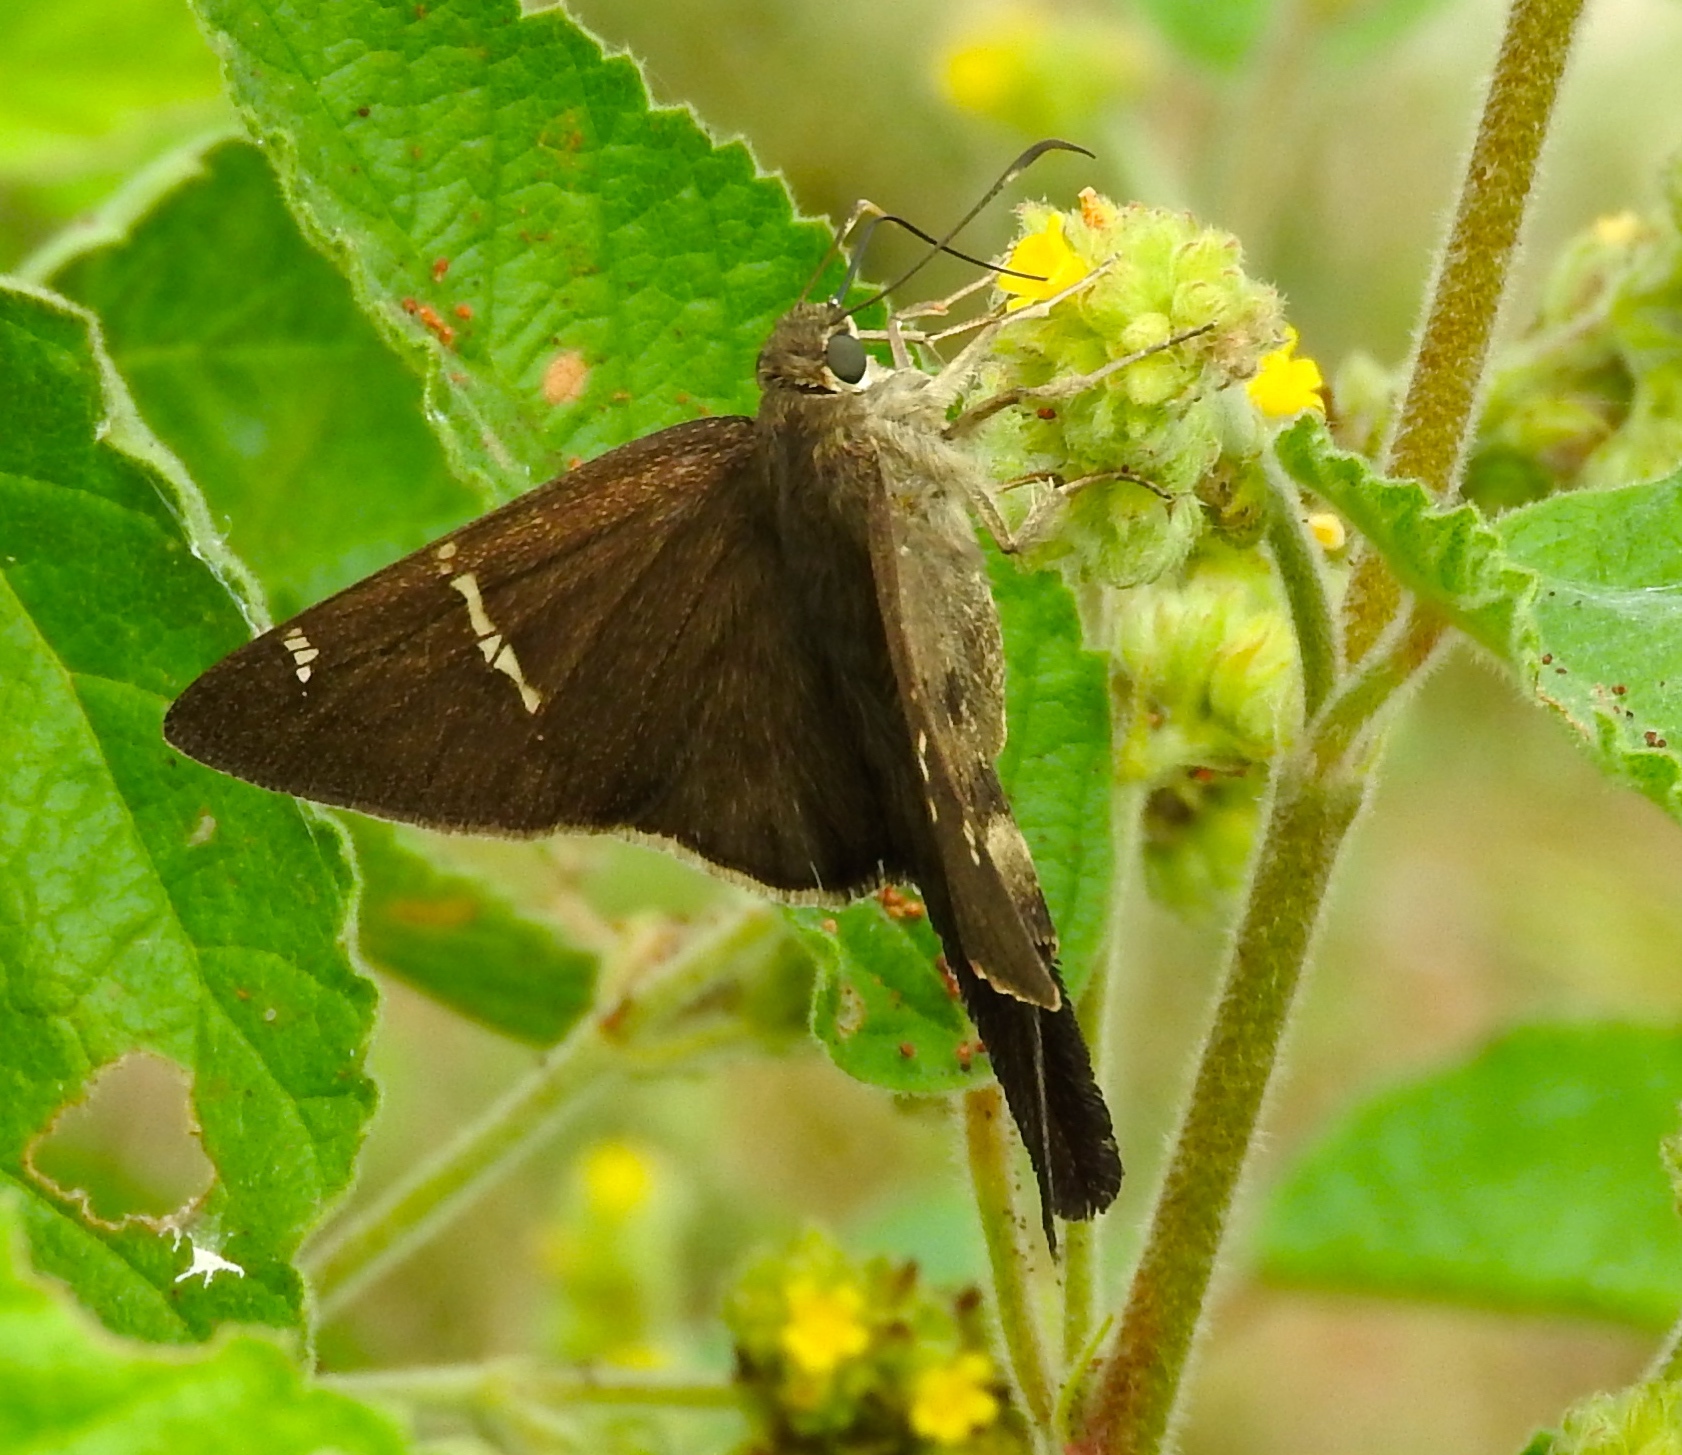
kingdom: Animalia
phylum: Arthropoda
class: Insecta
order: Lepidoptera
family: Hesperiidae
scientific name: Hesperiidae
